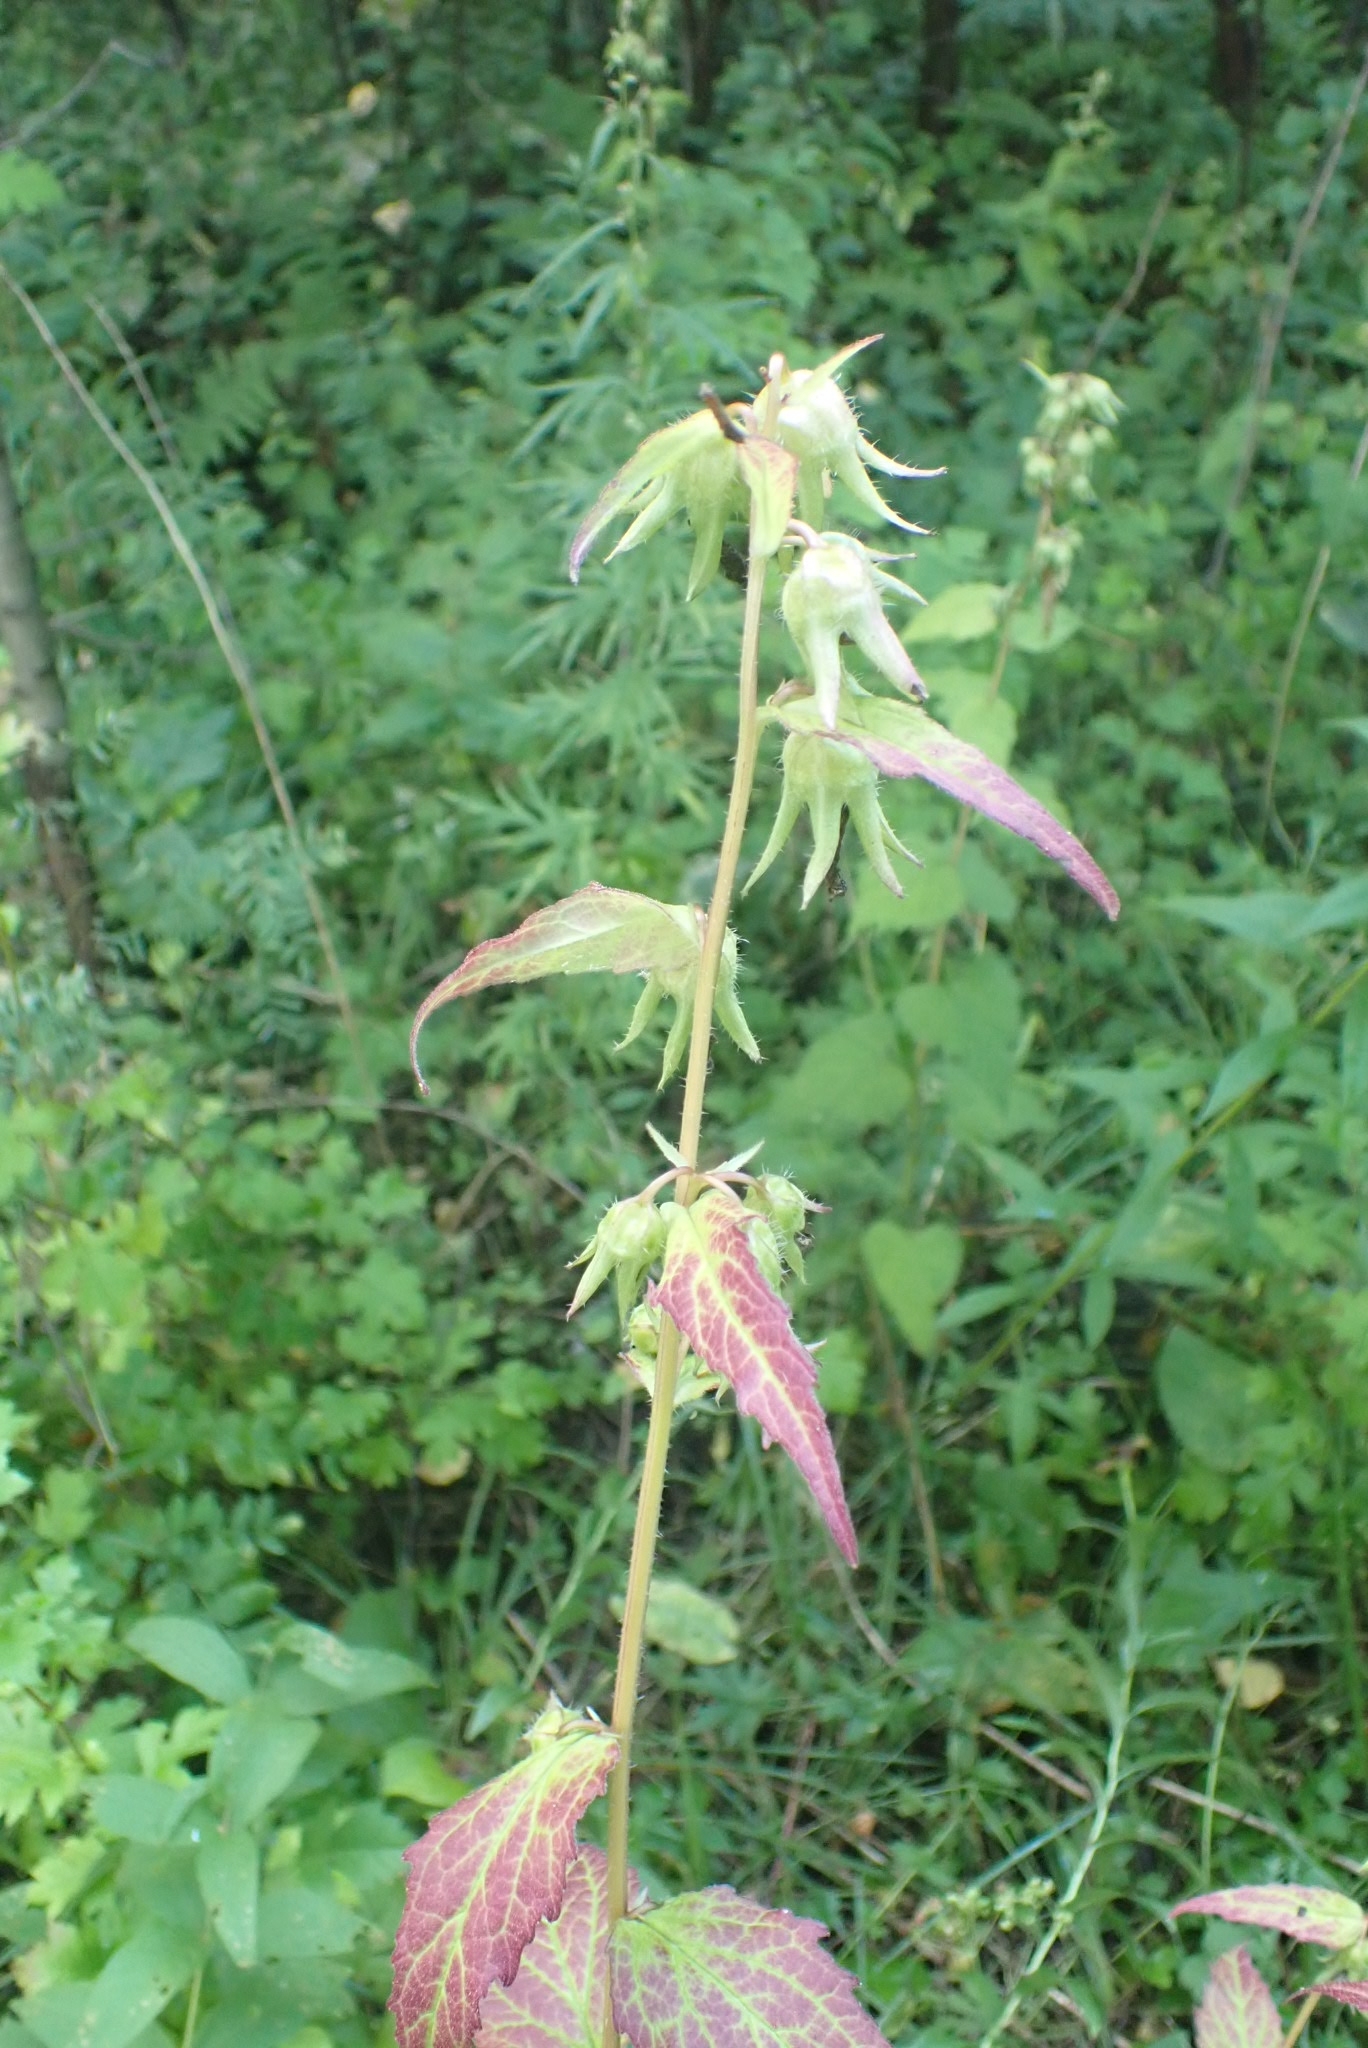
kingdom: Plantae
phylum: Tracheophyta
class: Magnoliopsida
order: Asterales
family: Campanulaceae
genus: Campanula
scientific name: Campanula trachelium
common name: Nettle-leaved bellflower
